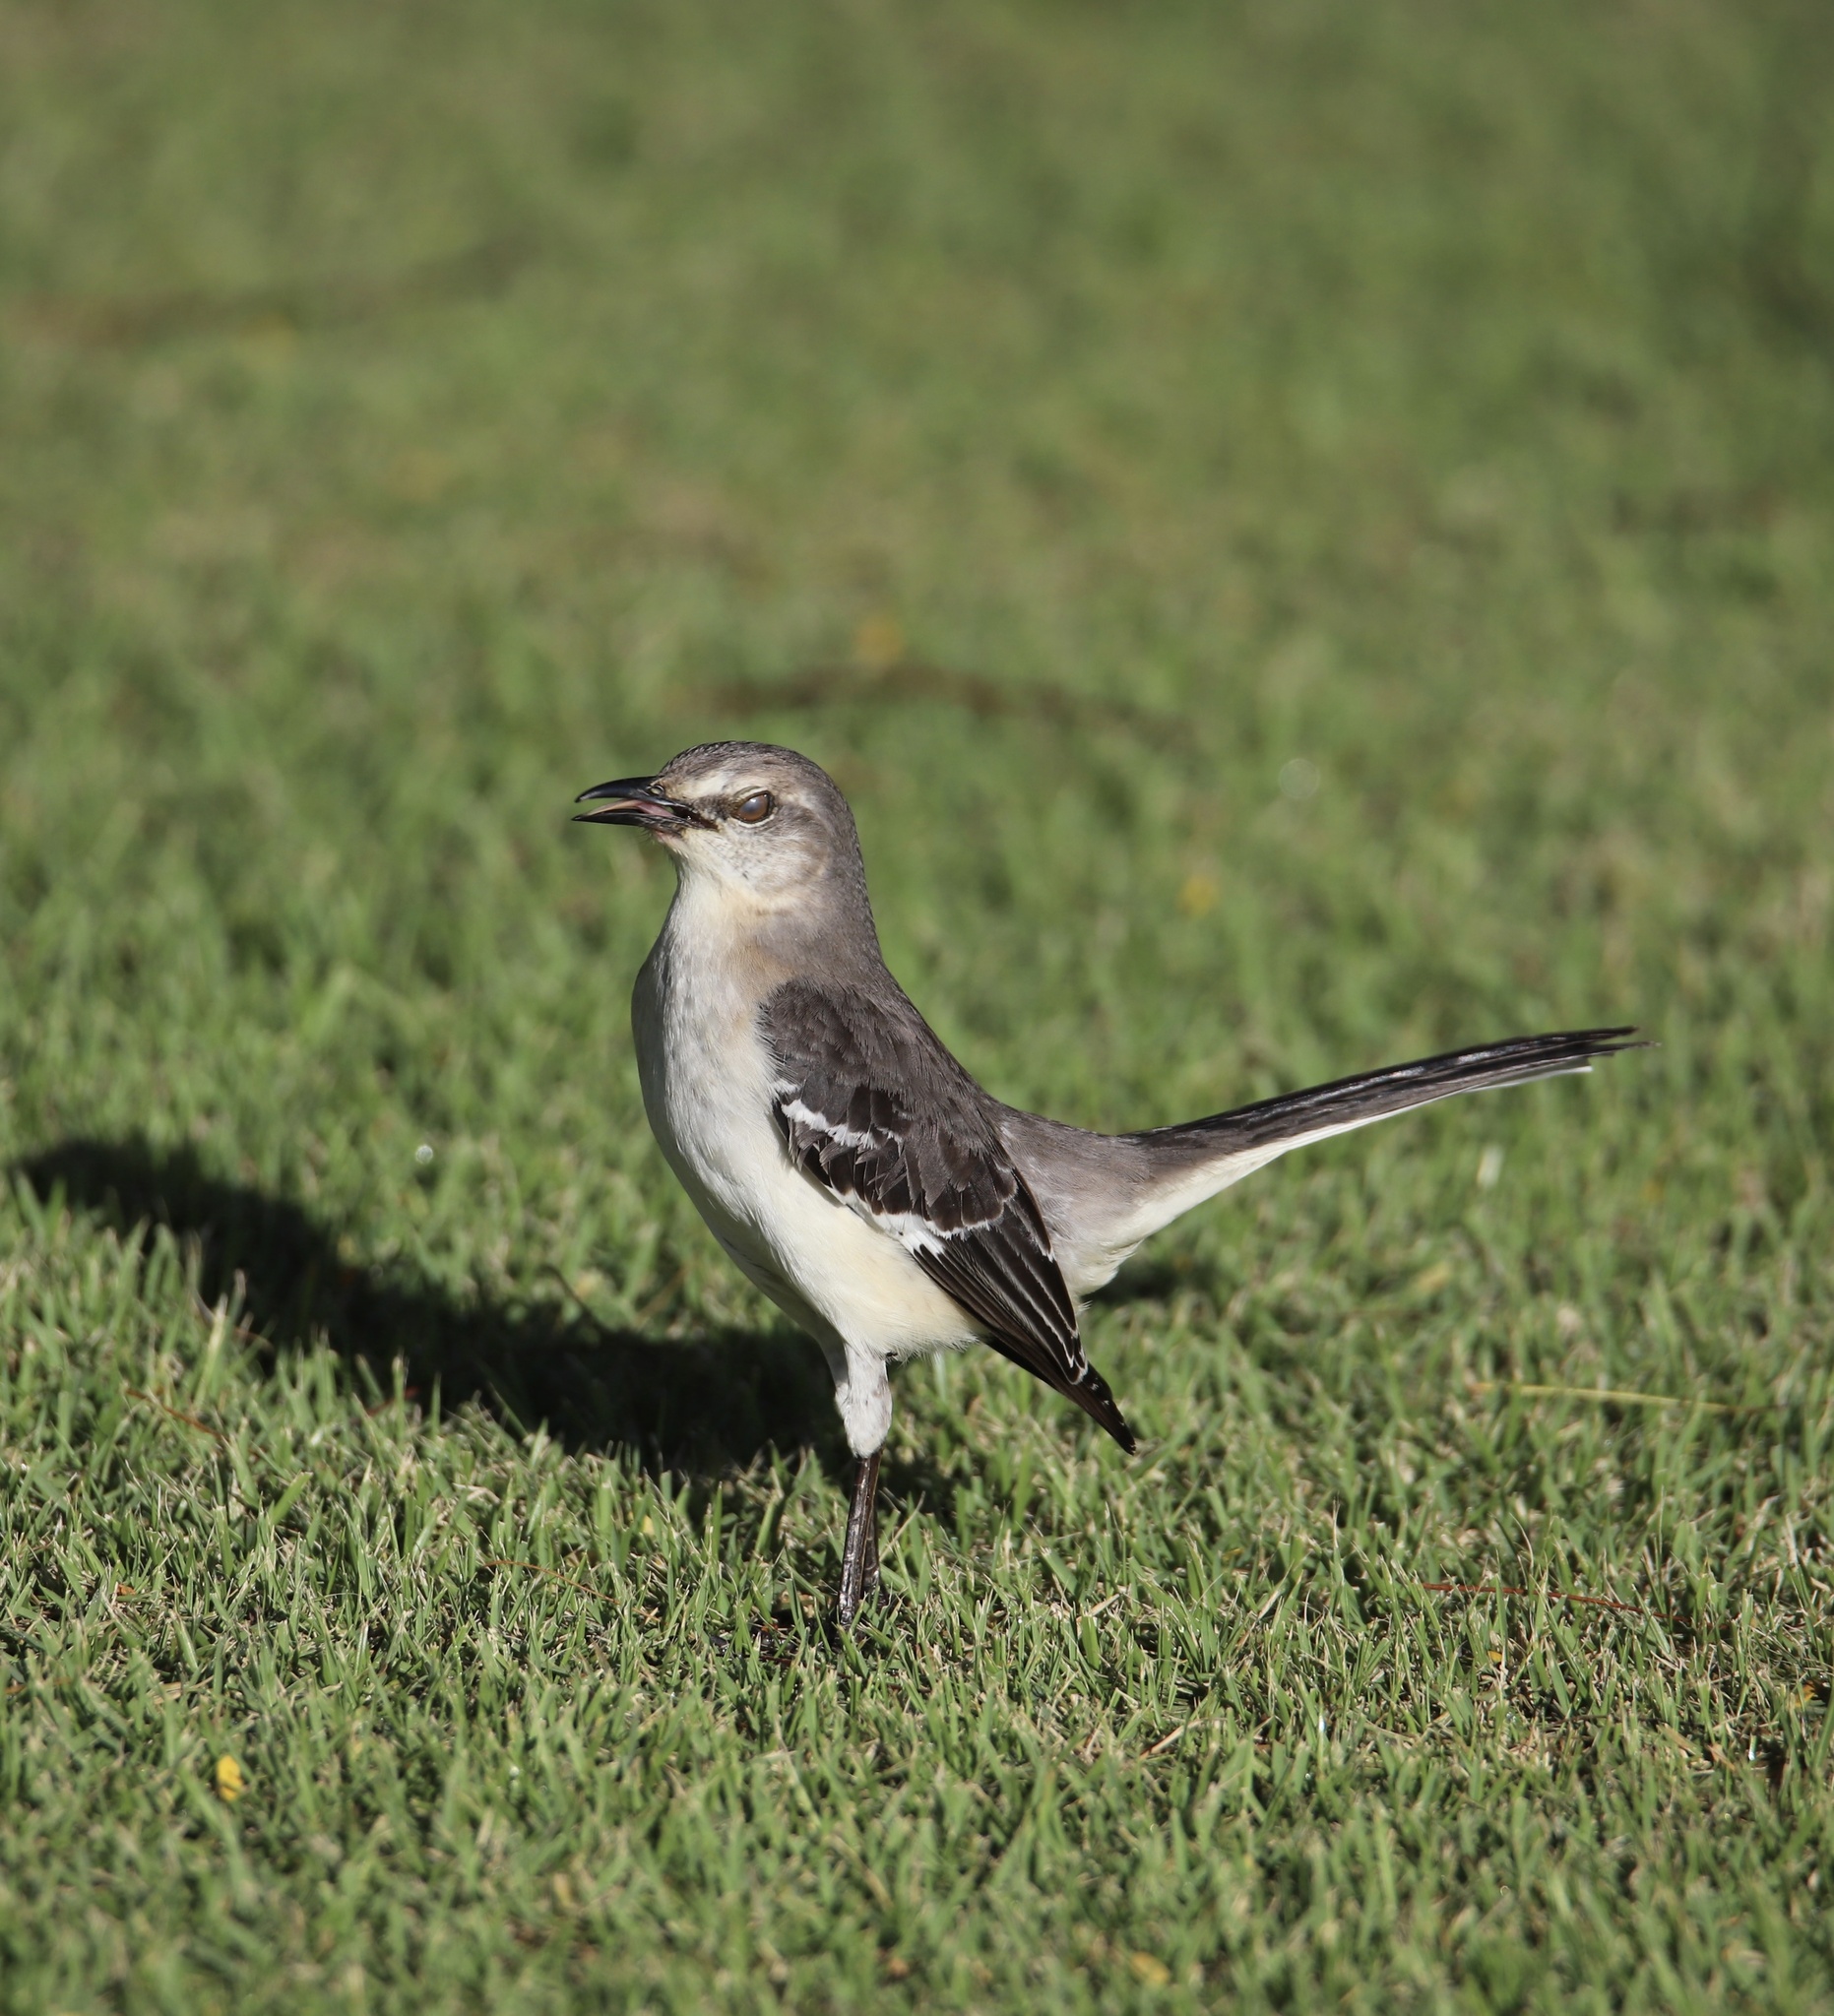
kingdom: Animalia
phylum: Chordata
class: Aves
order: Passeriformes
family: Mimidae
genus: Mimus
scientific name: Mimus polyglottos
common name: Northern mockingbird
